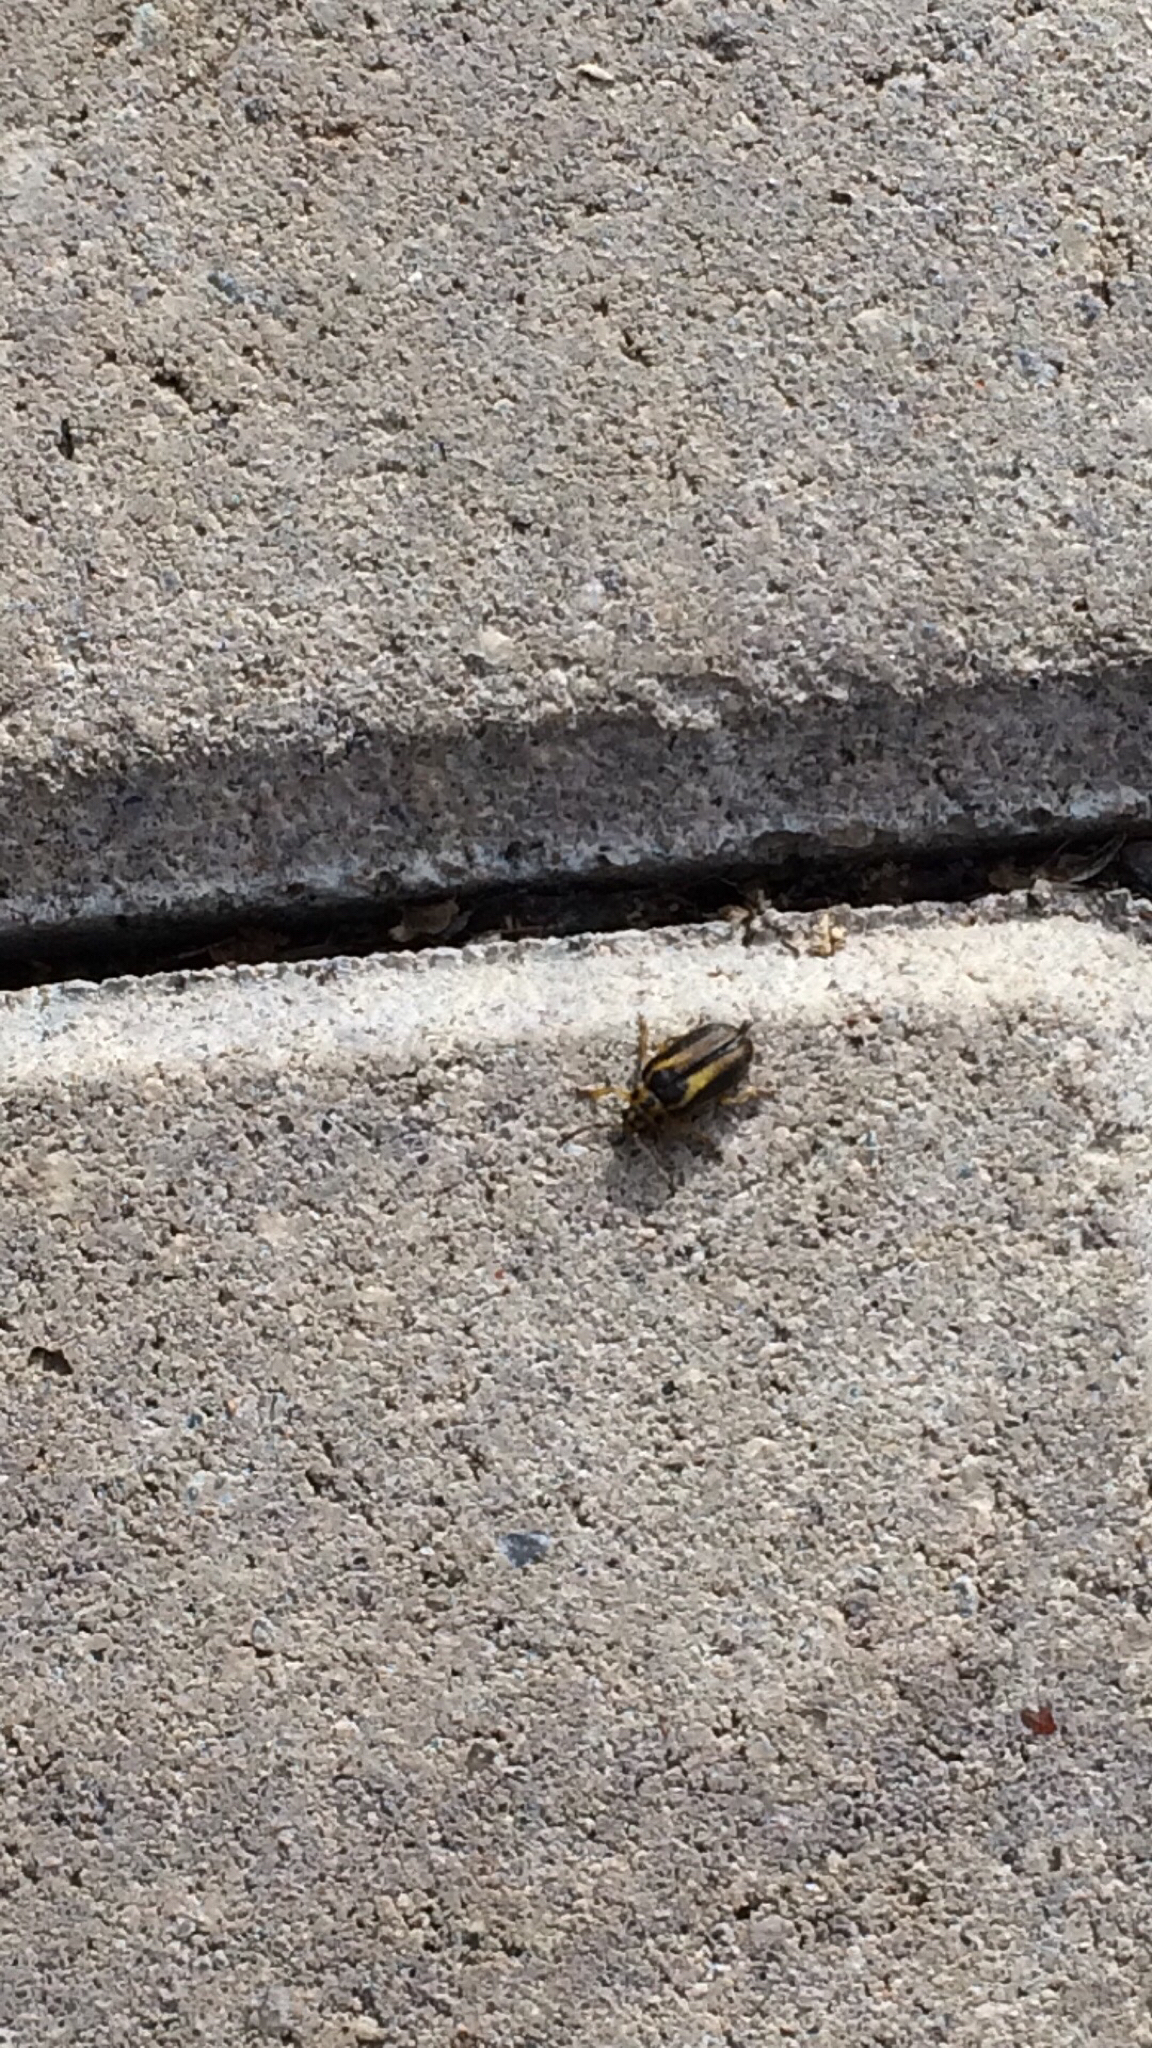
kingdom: Animalia
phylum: Arthropoda
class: Insecta
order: Coleoptera
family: Chrysomelidae
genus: Xanthogaleruca
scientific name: Xanthogaleruca luteola
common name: Elm leaf beetle
